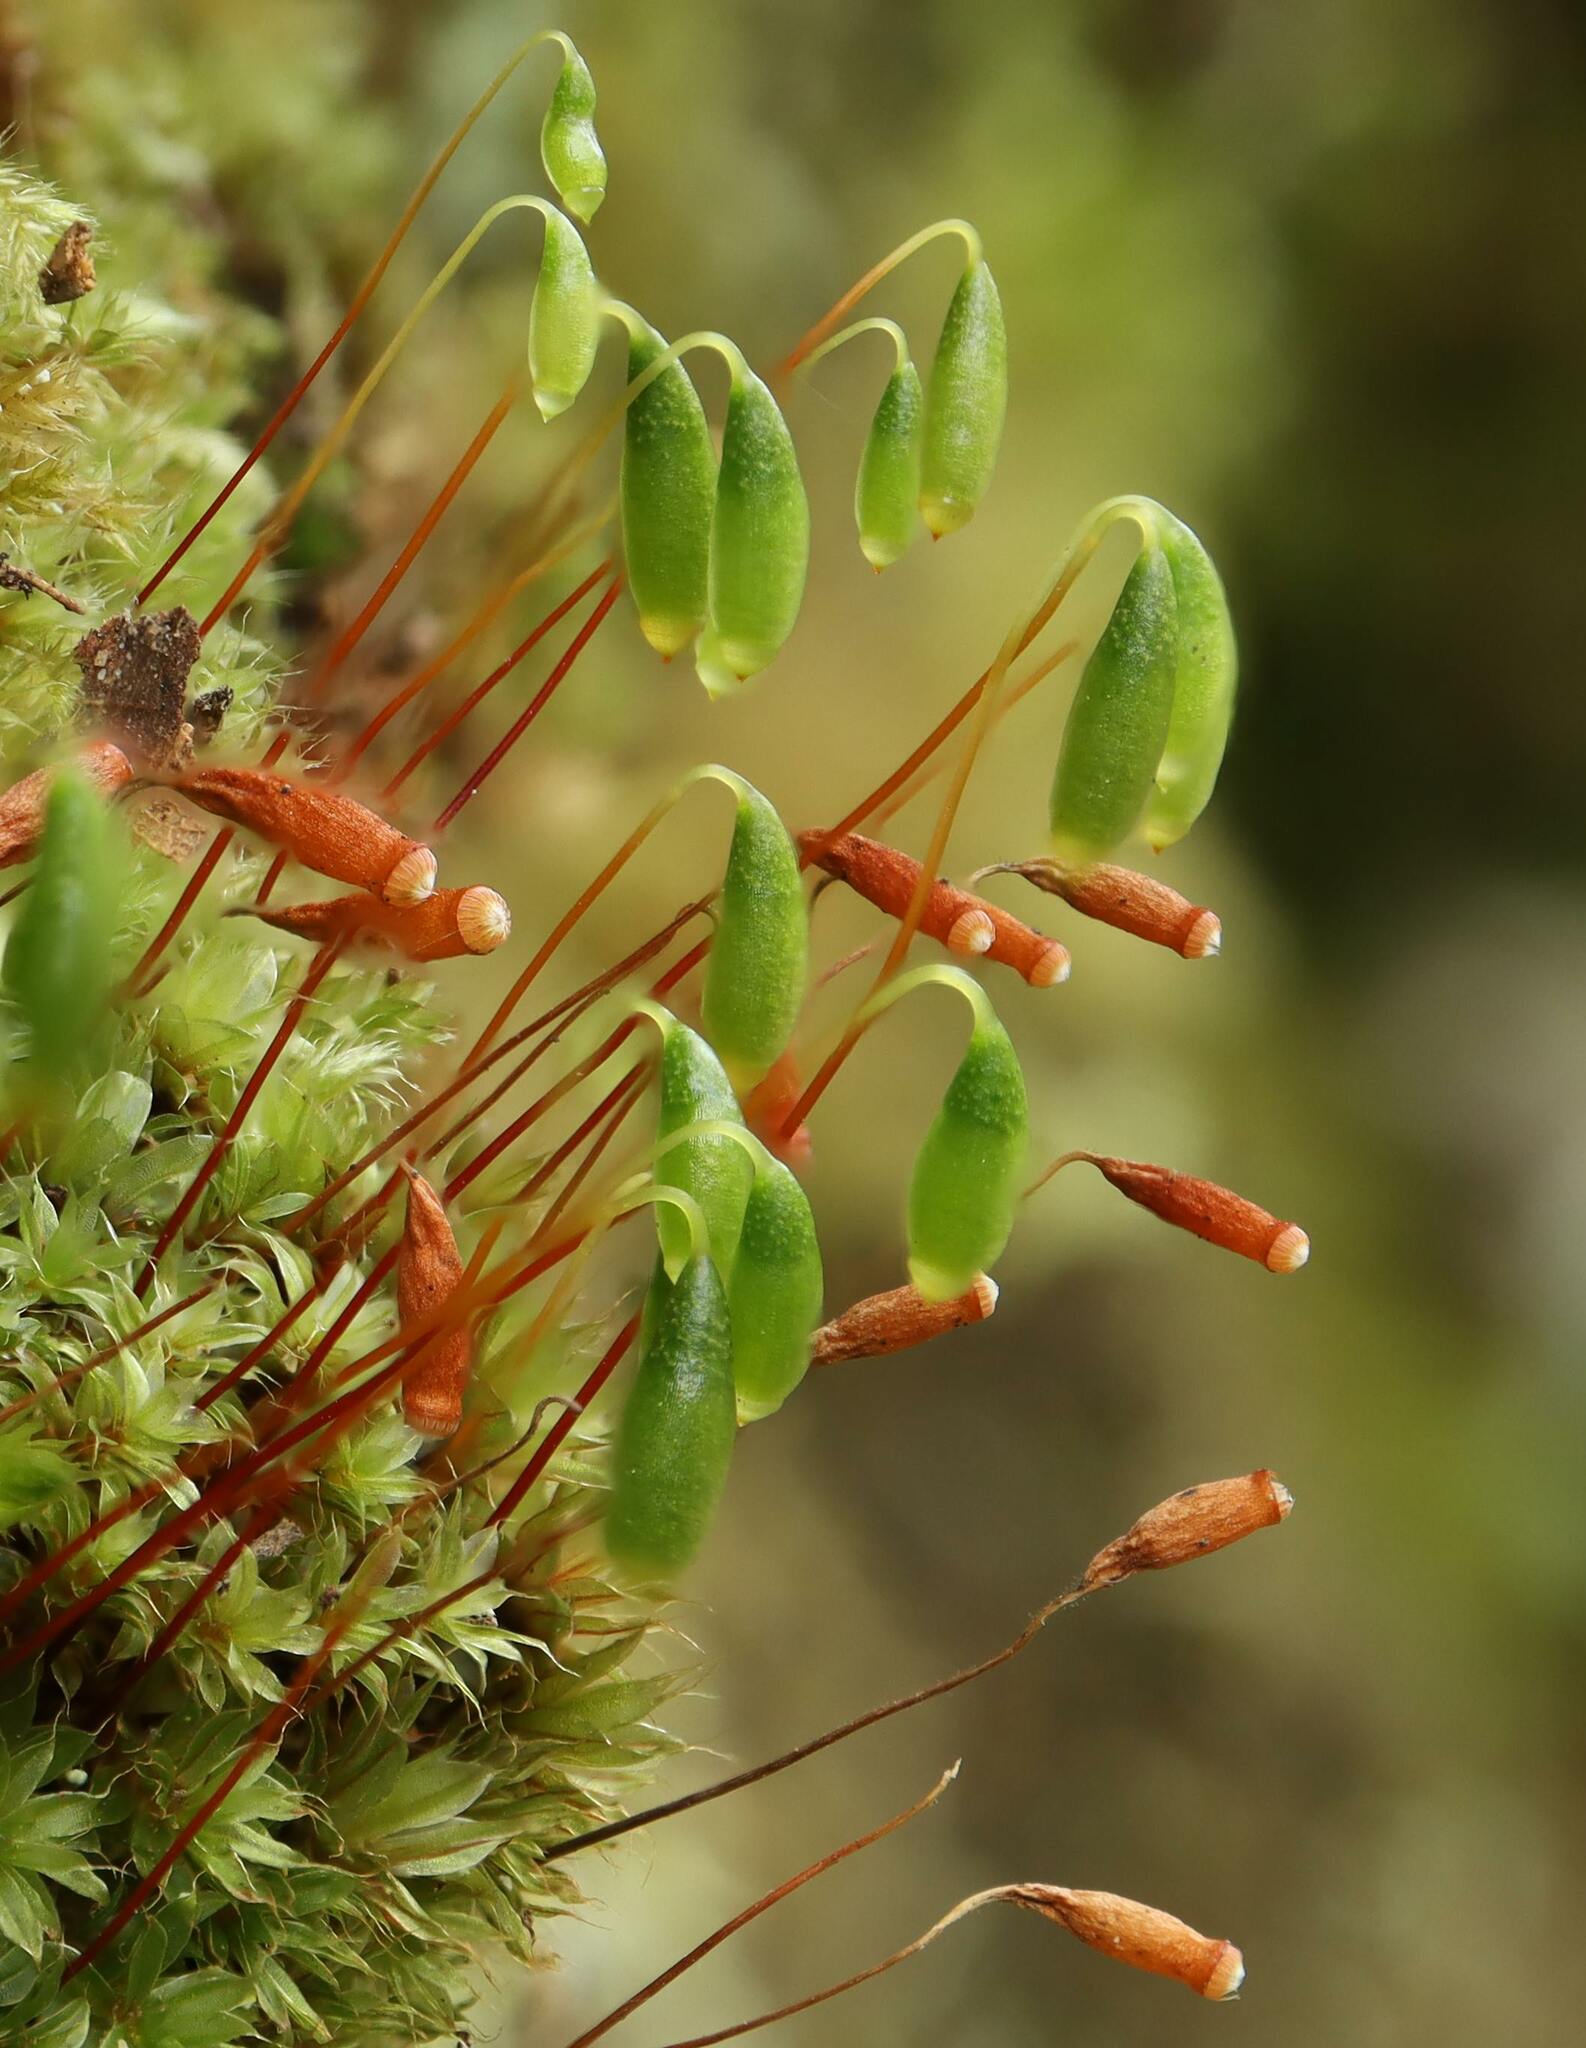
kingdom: Plantae
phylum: Bryophyta
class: Bryopsida
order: Bryales
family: Bryaceae
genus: Rosulabryum
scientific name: Rosulabryum capillare
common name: Capillary thread-moss
